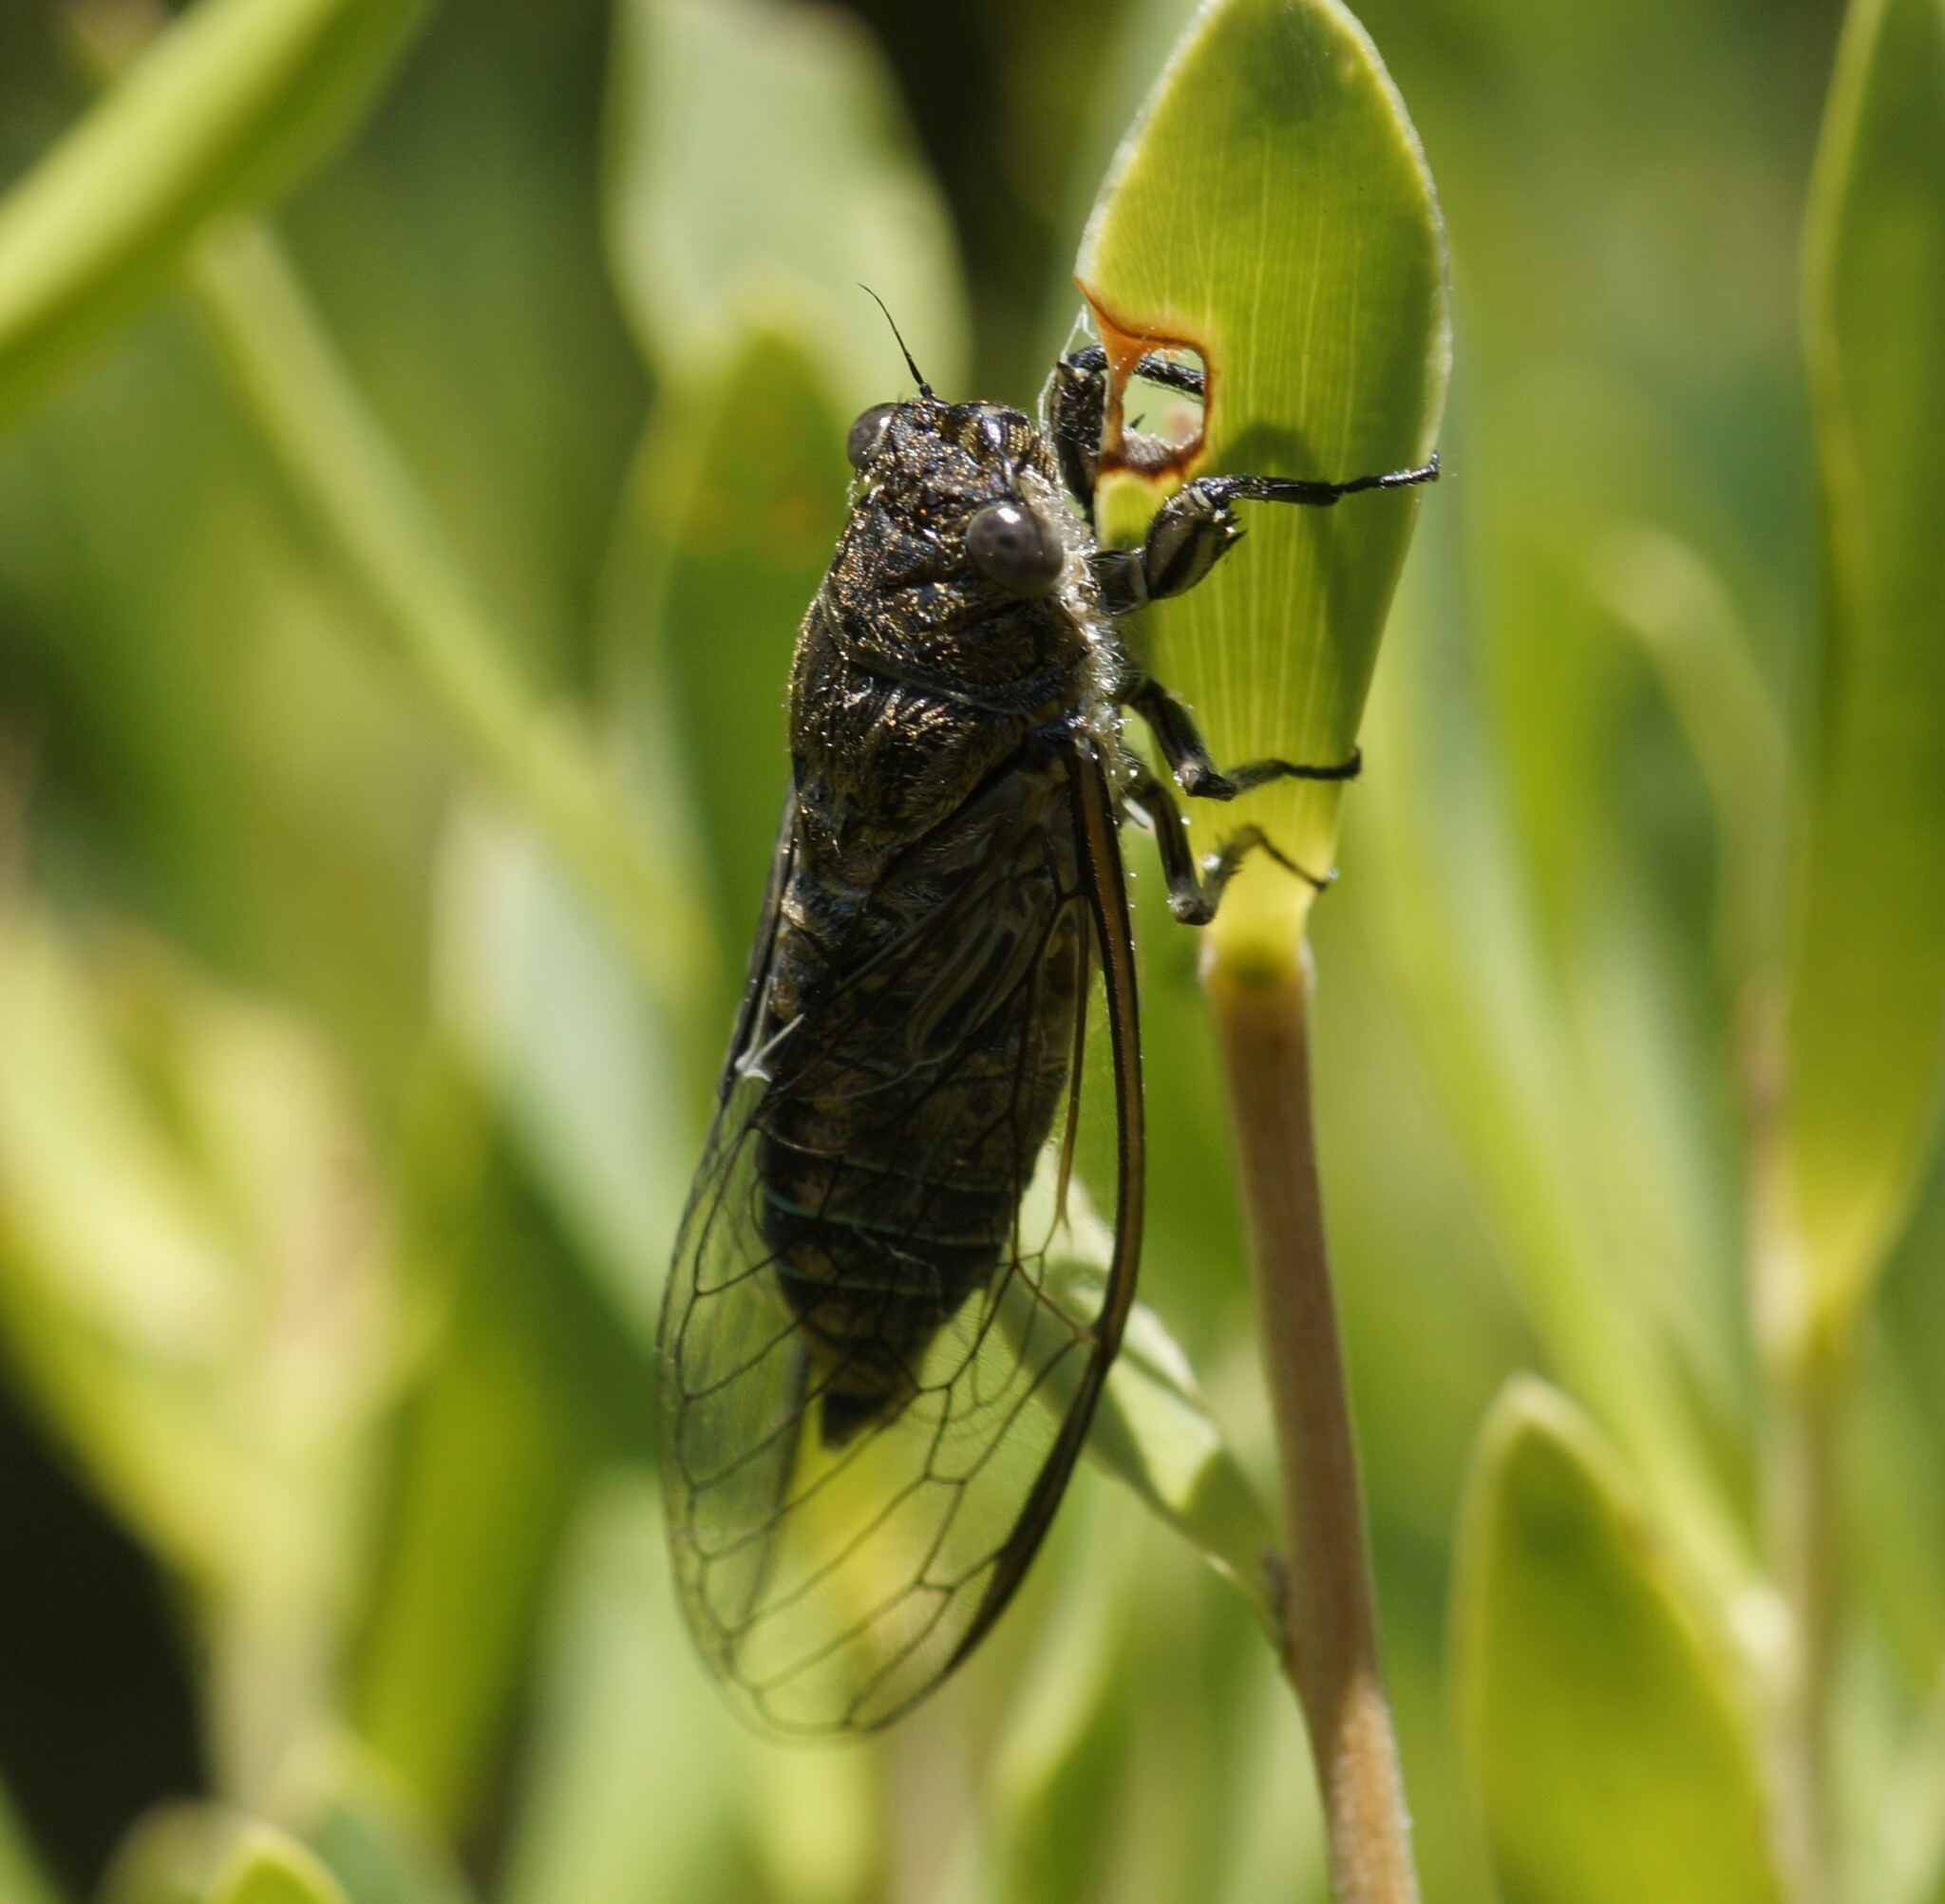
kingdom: Animalia
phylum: Arthropoda
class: Insecta
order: Hemiptera
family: Cicadidae
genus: Physeema
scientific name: Physeema labyrinthica
